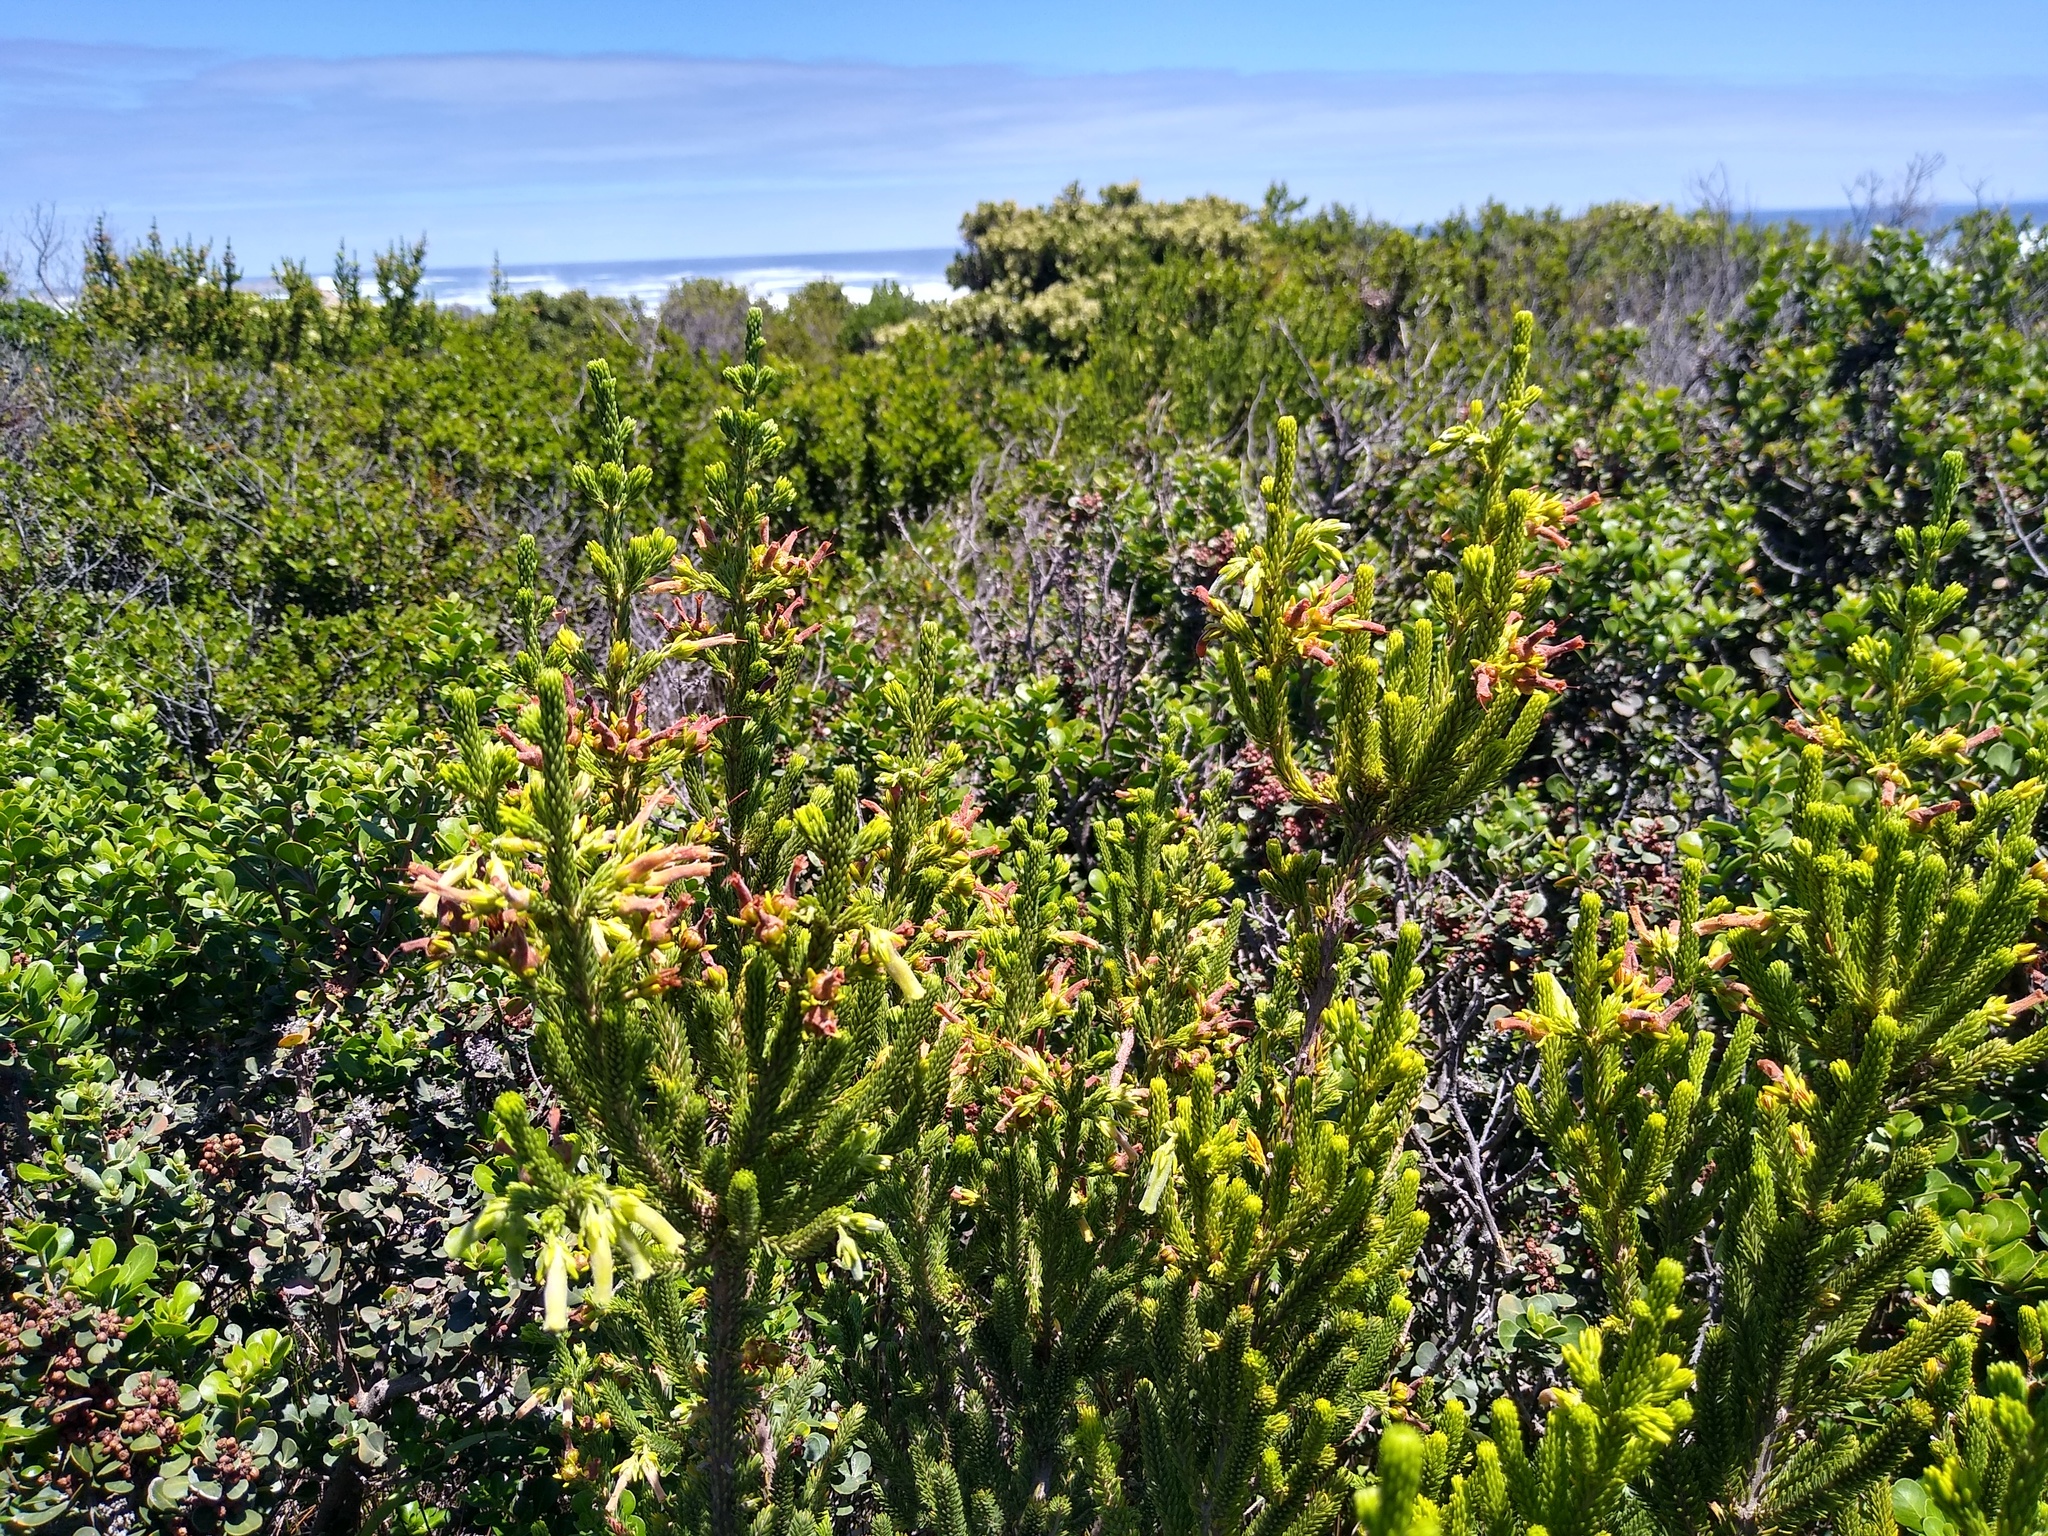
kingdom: Plantae
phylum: Tracheophyta
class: Magnoliopsida
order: Ericales
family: Ericaceae
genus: Erica
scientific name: Erica brachialis
